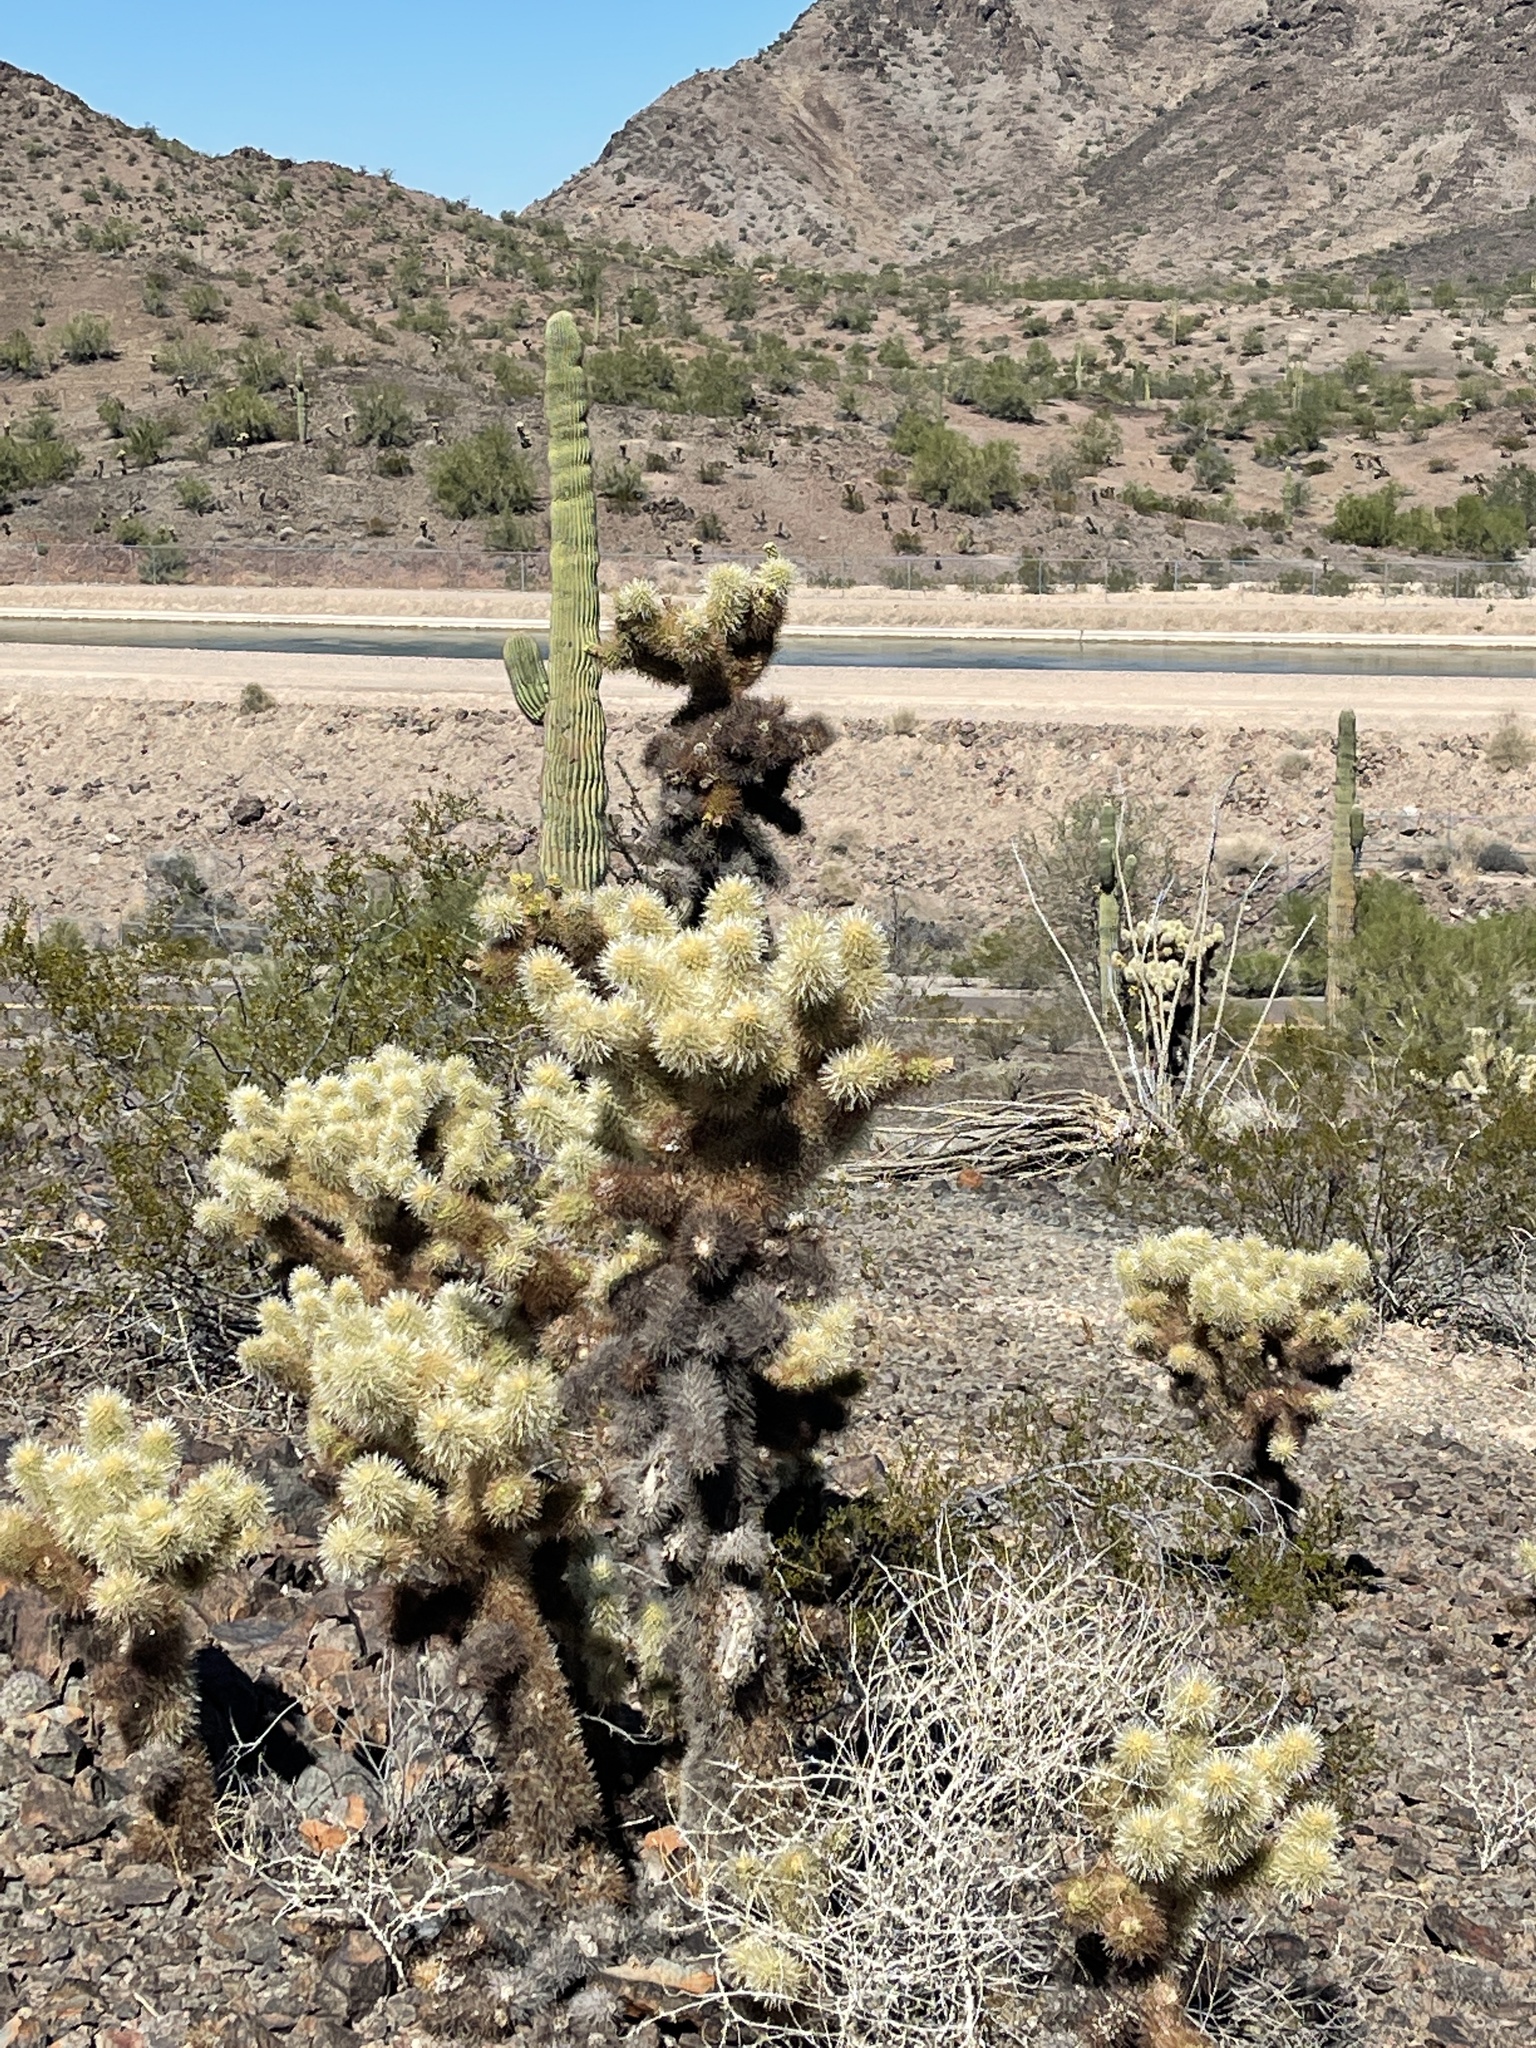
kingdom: Plantae
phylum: Tracheophyta
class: Magnoliopsida
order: Caryophyllales
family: Cactaceae
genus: Cylindropuntia
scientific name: Cylindropuntia fosbergii
